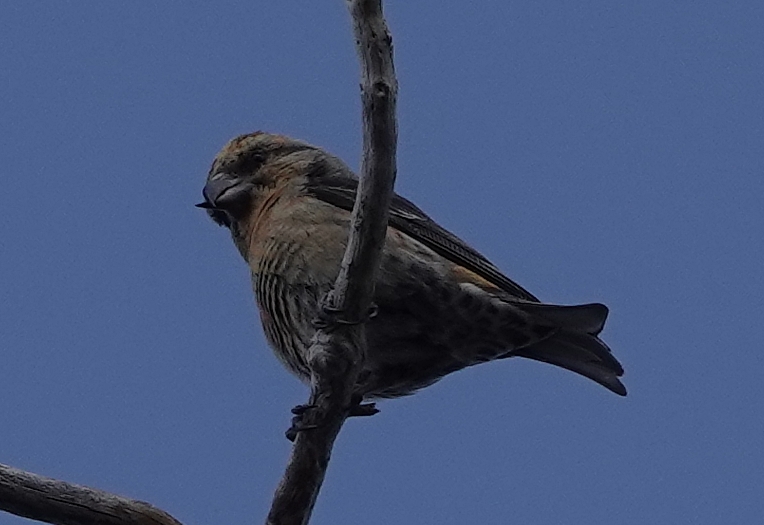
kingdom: Animalia
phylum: Chordata
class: Aves
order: Passeriformes
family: Fringillidae
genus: Loxia
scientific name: Loxia curvirostra
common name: Red crossbill
